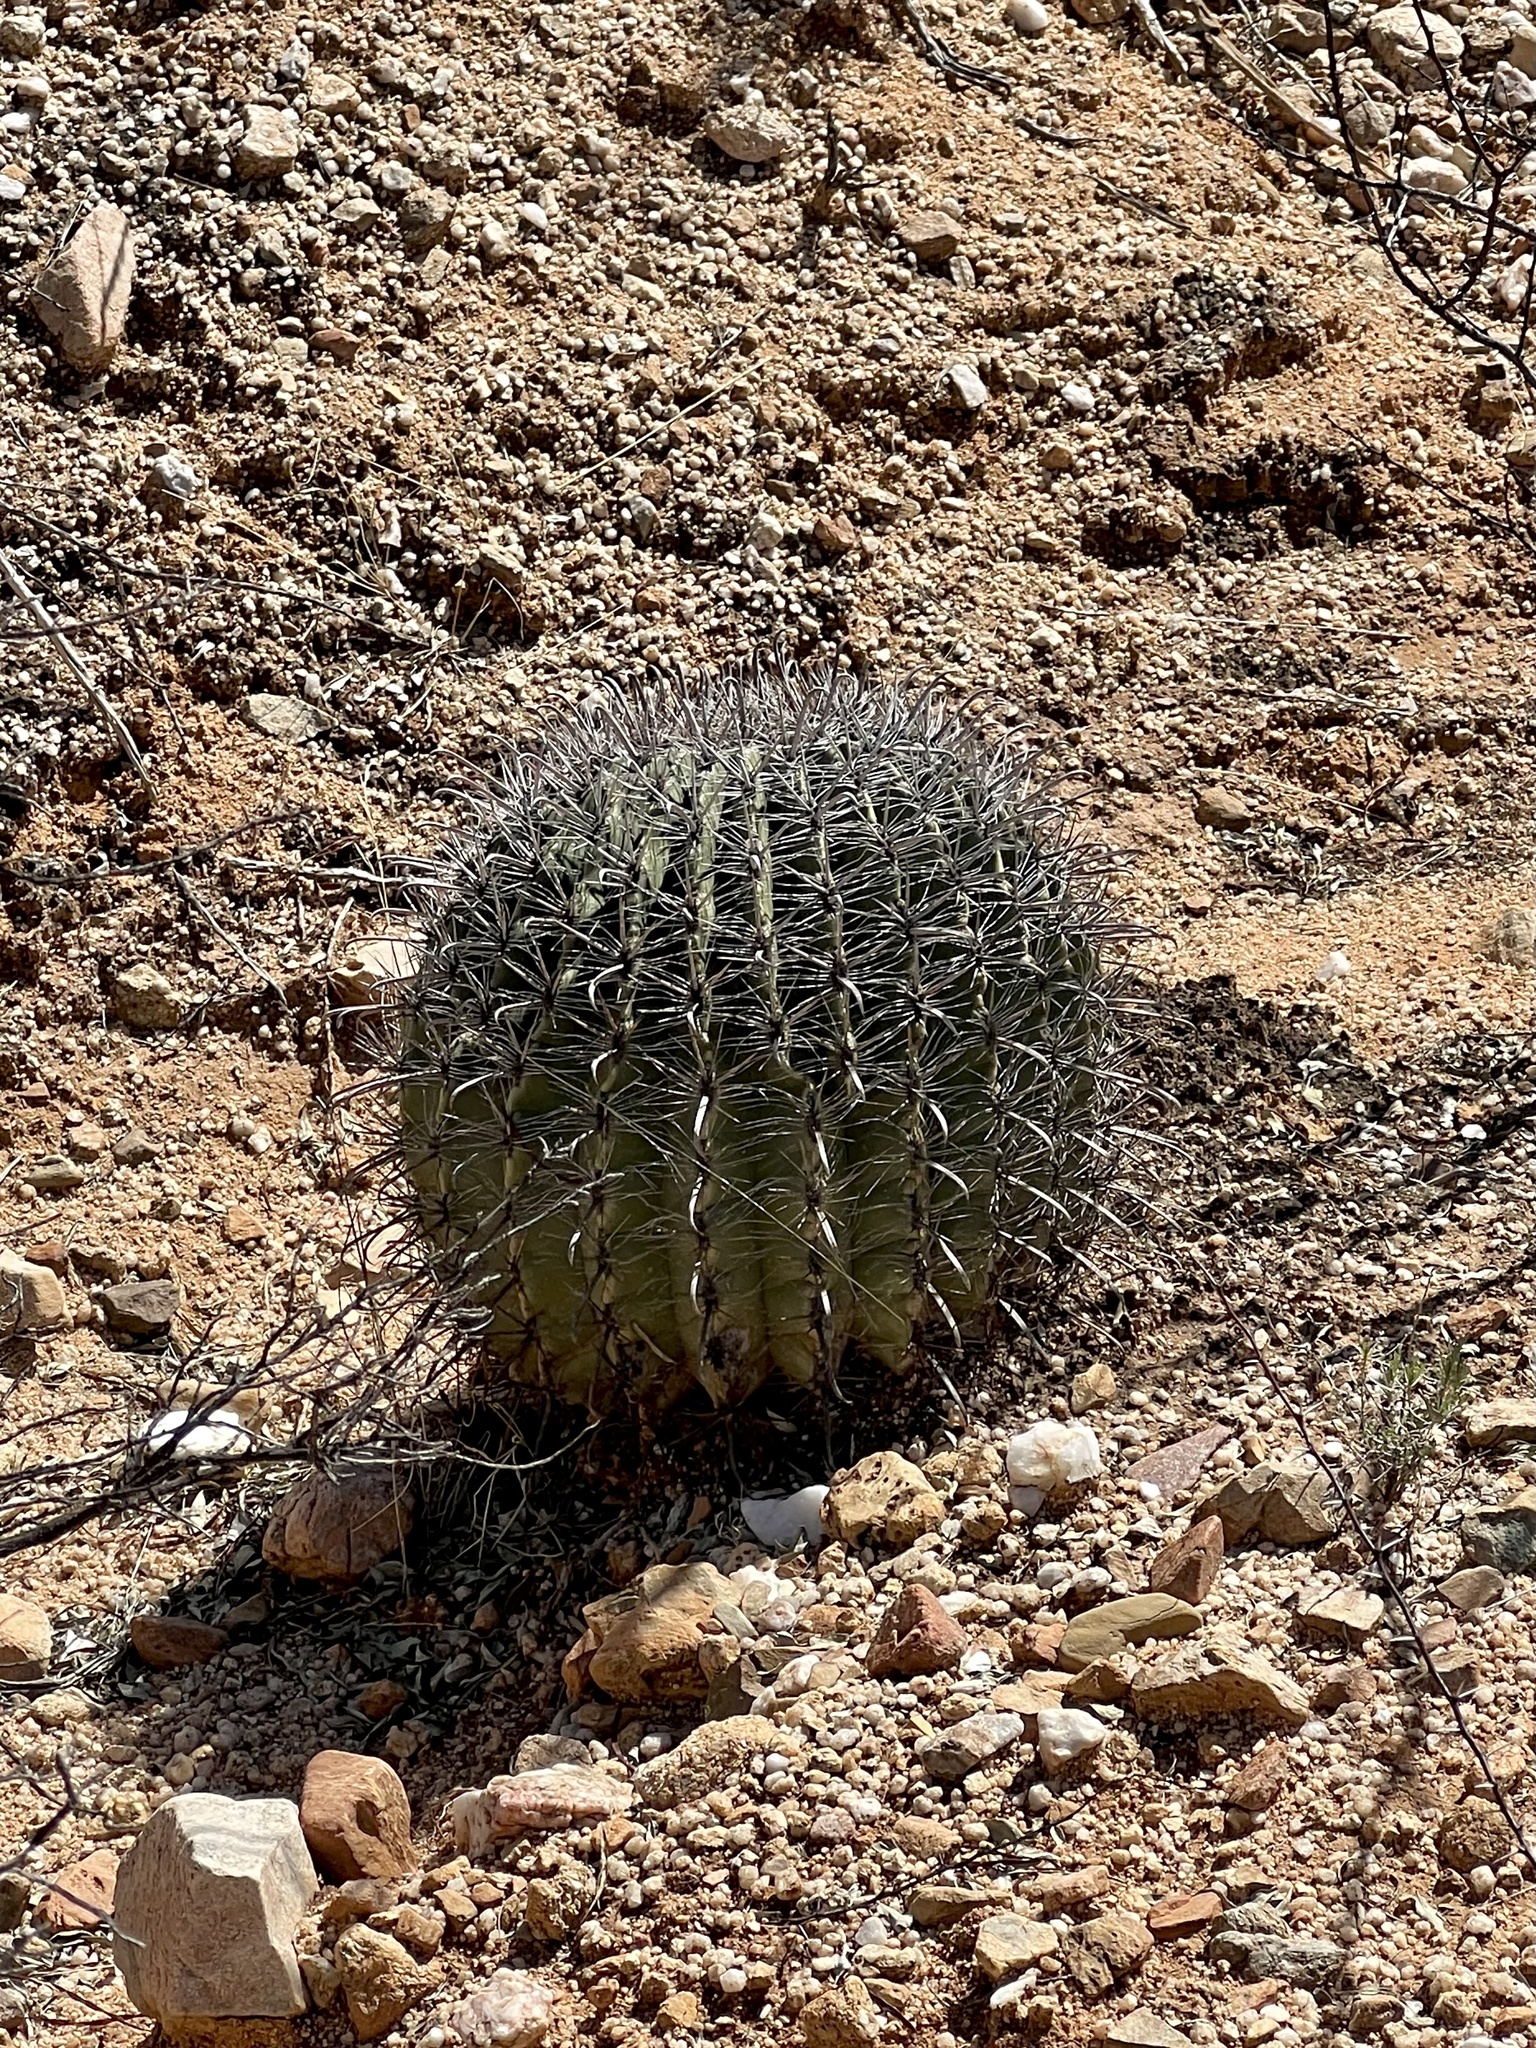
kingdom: Plantae
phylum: Tracheophyta
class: Magnoliopsida
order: Caryophyllales
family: Cactaceae
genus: Ferocactus
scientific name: Ferocactus wislizeni
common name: Candy barrel cactus
